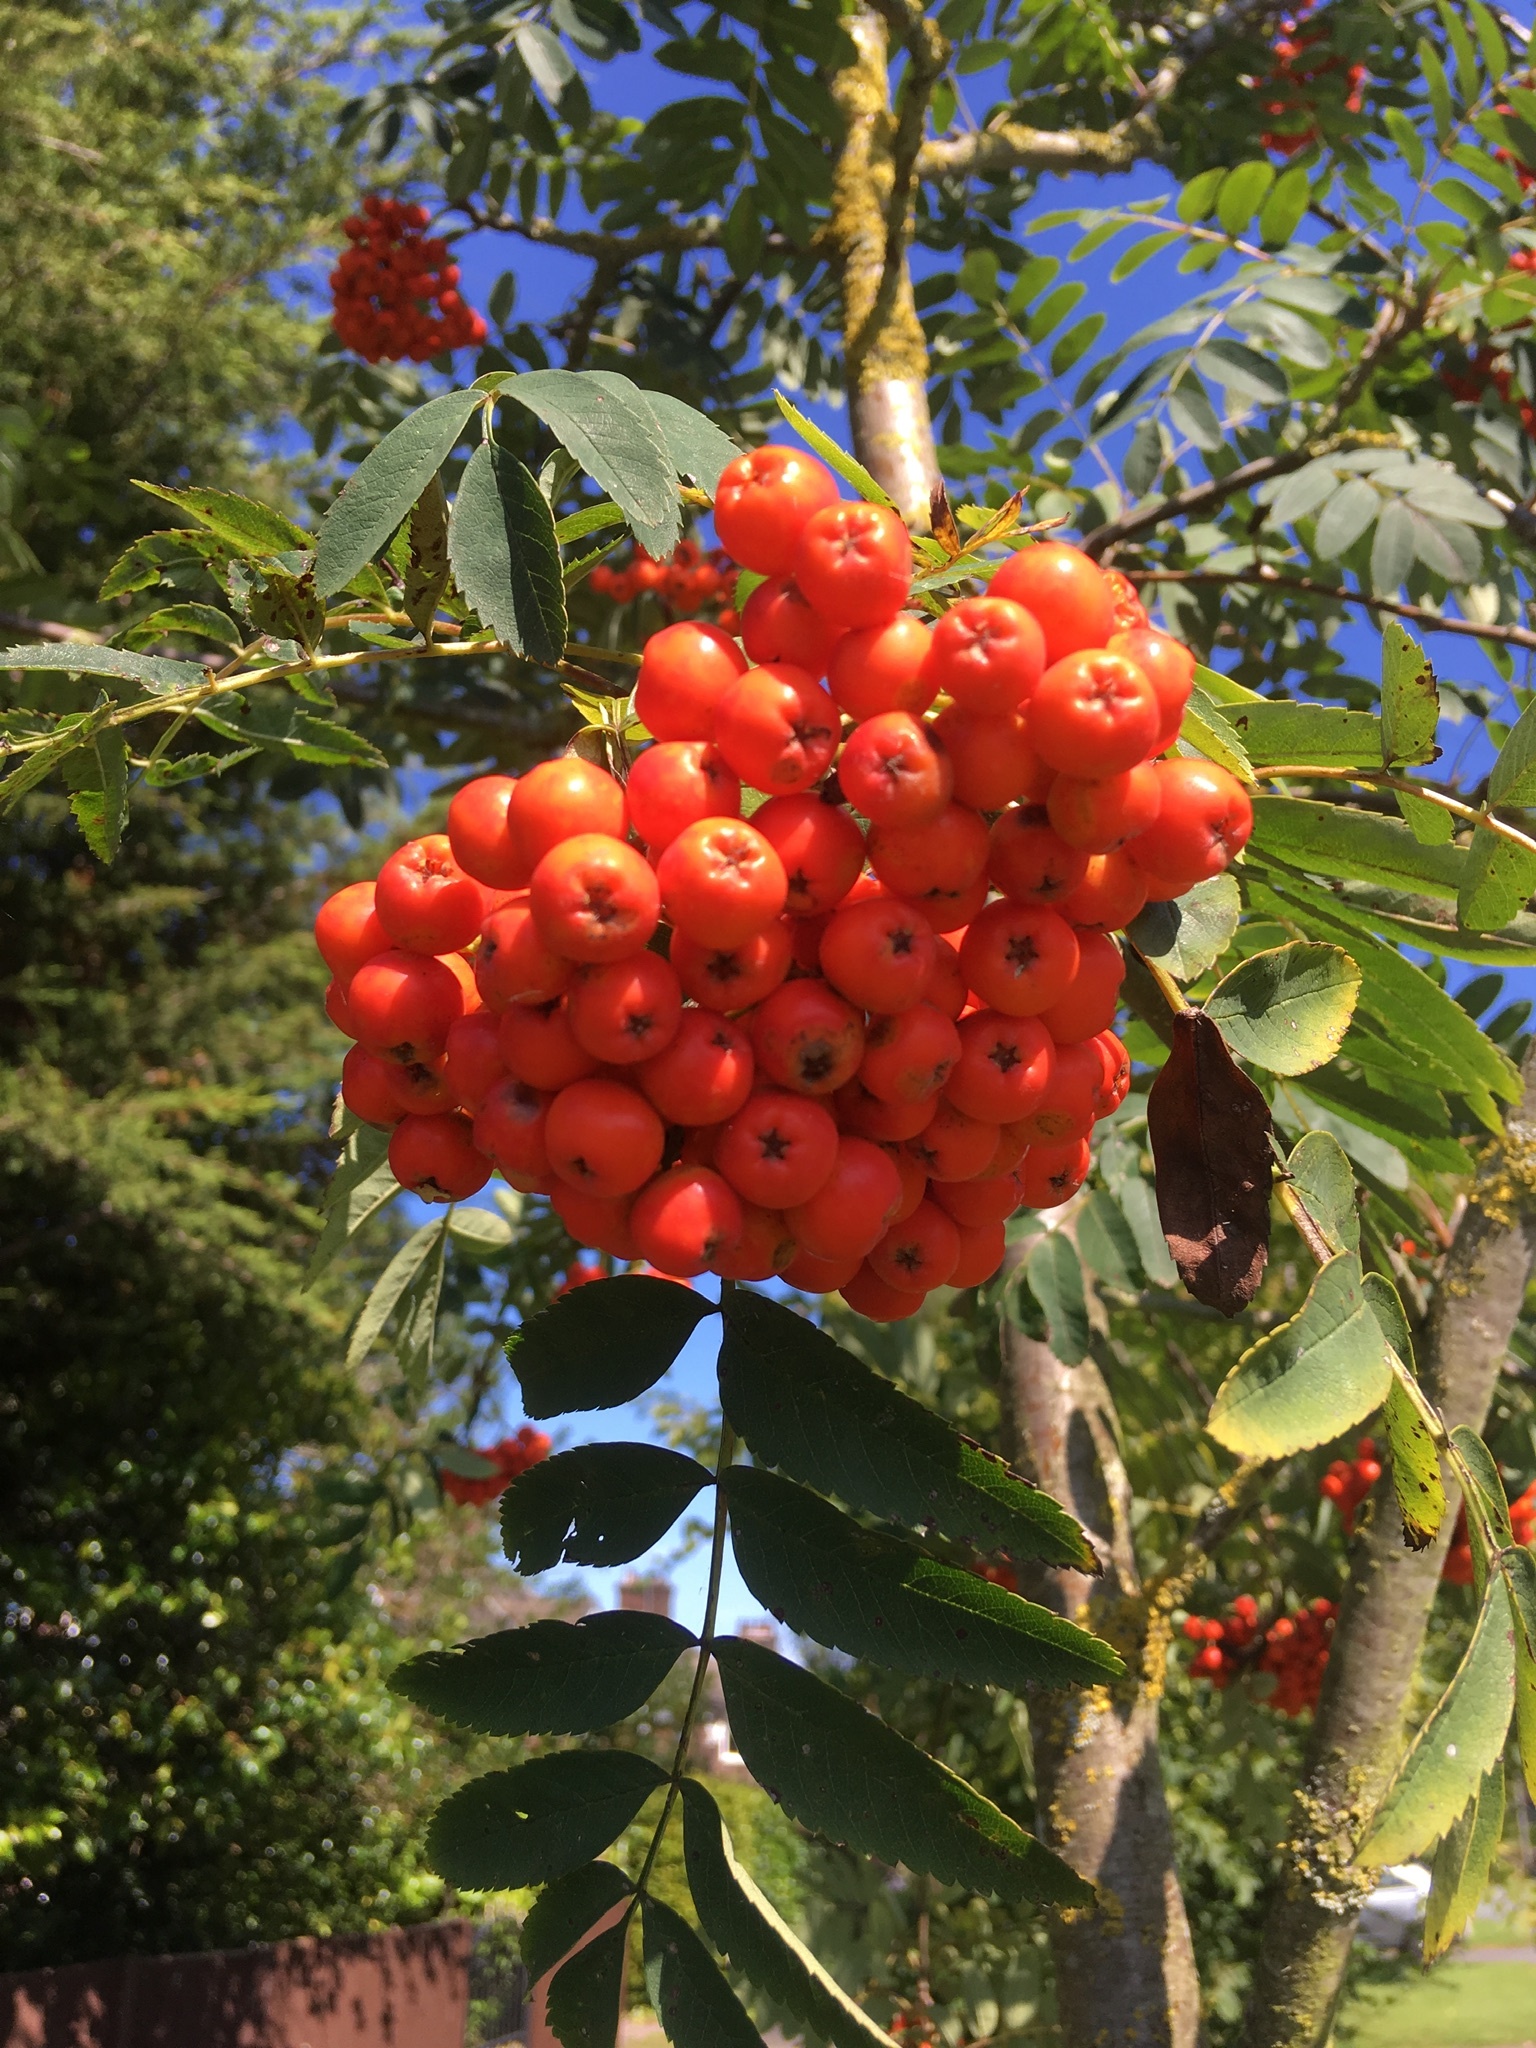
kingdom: Plantae
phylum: Tracheophyta
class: Magnoliopsida
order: Rosales
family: Rosaceae
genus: Sorbus
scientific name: Sorbus aucuparia
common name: Rowan
